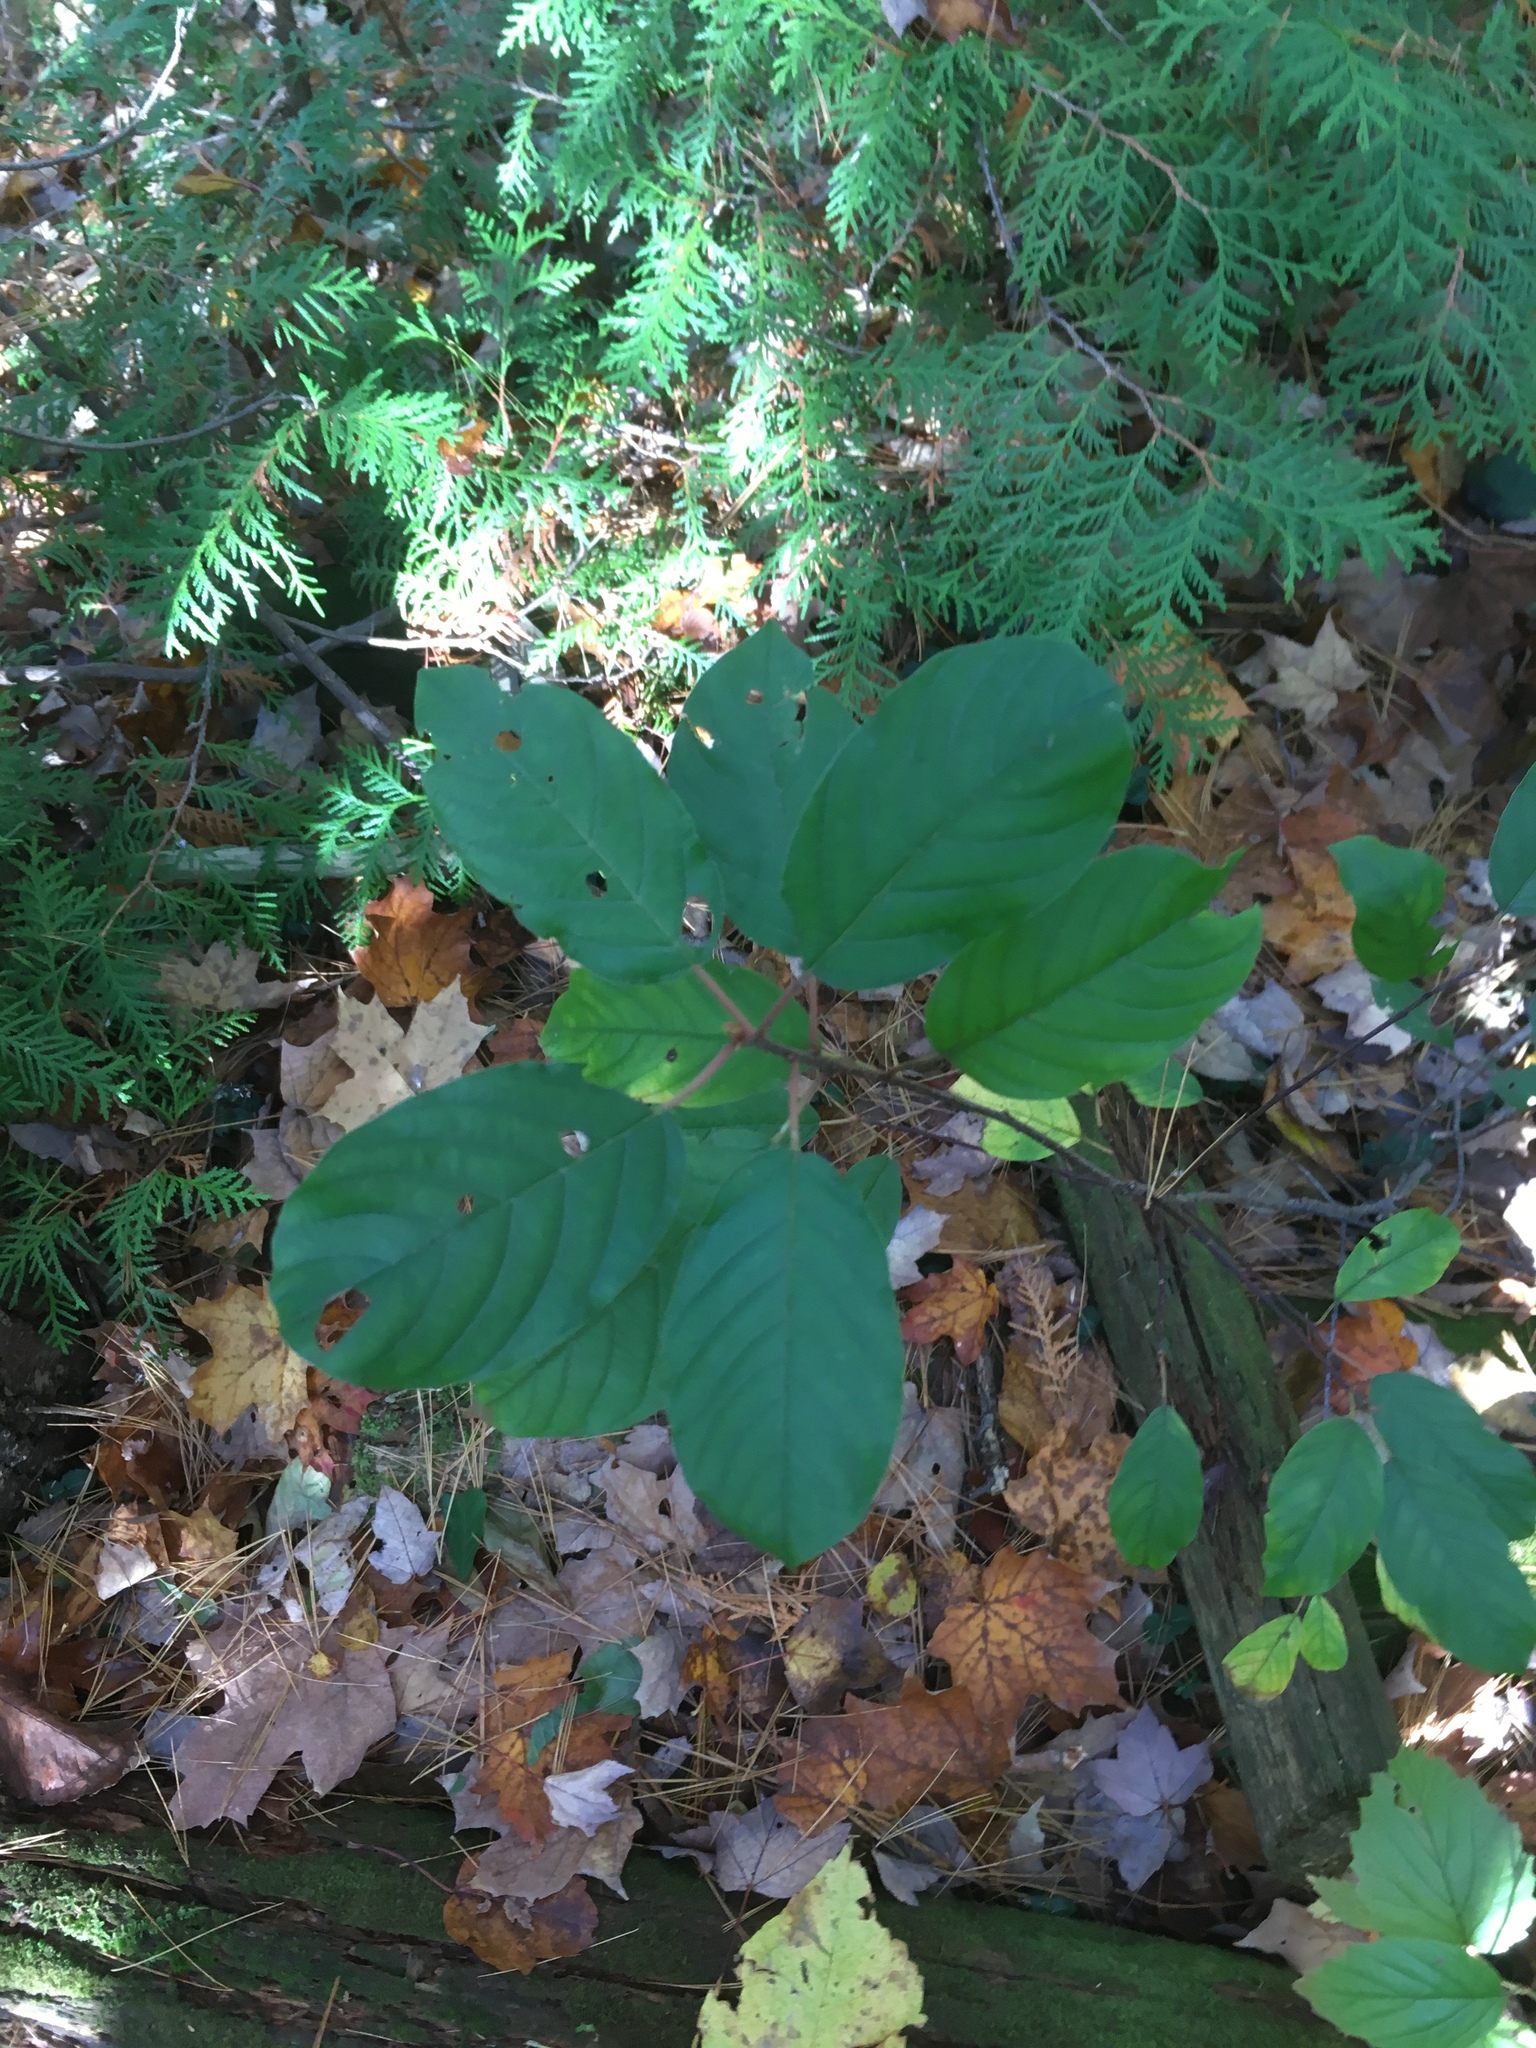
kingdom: Plantae
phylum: Tracheophyta
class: Magnoliopsida
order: Rosales
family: Rhamnaceae
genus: Frangula
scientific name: Frangula alnus
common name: Alder buckthorn
